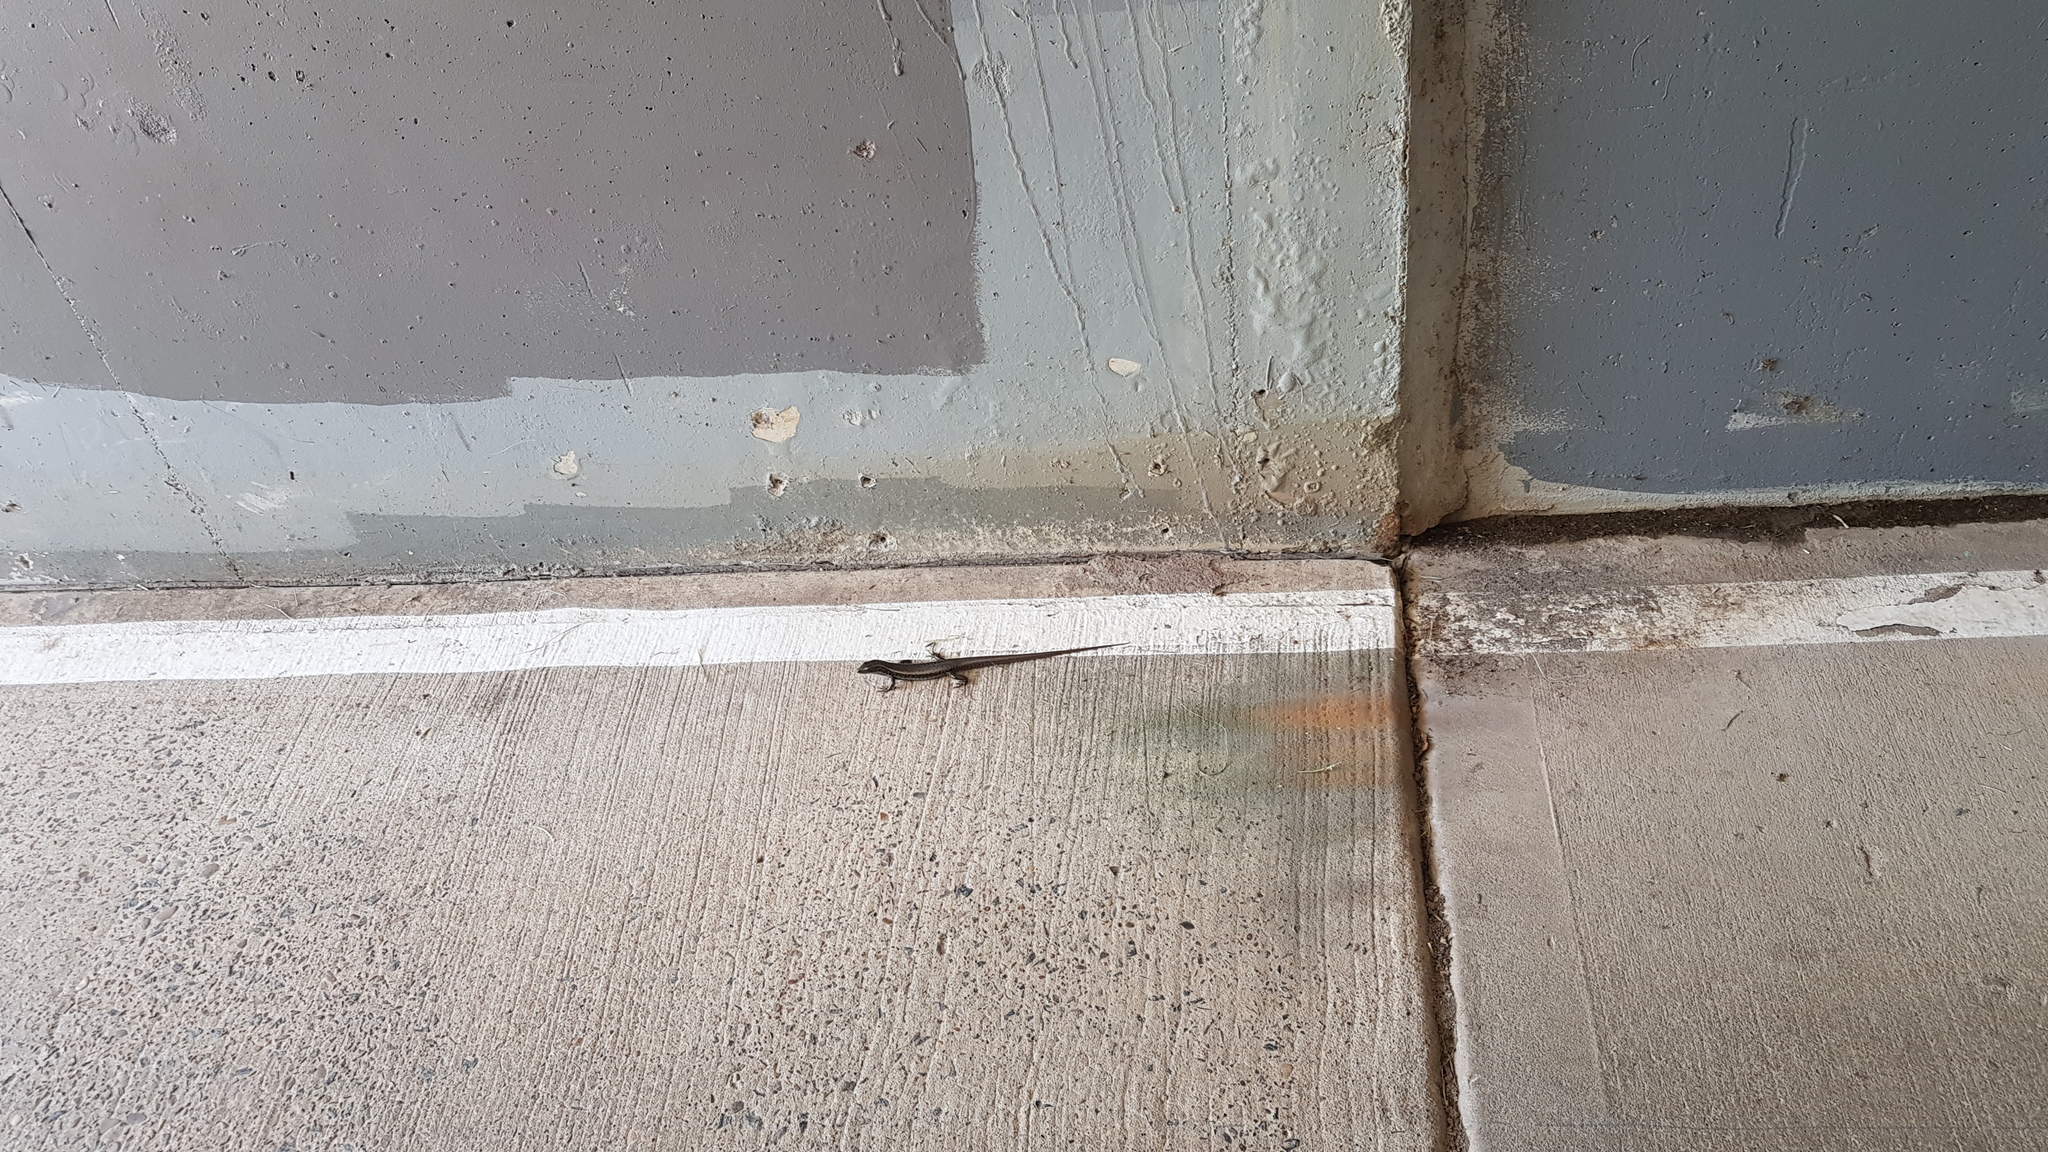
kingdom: Animalia
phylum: Chordata
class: Squamata
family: Scincidae
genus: Eulamprus
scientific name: Eulamprus quoyii
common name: Eastern water skink
